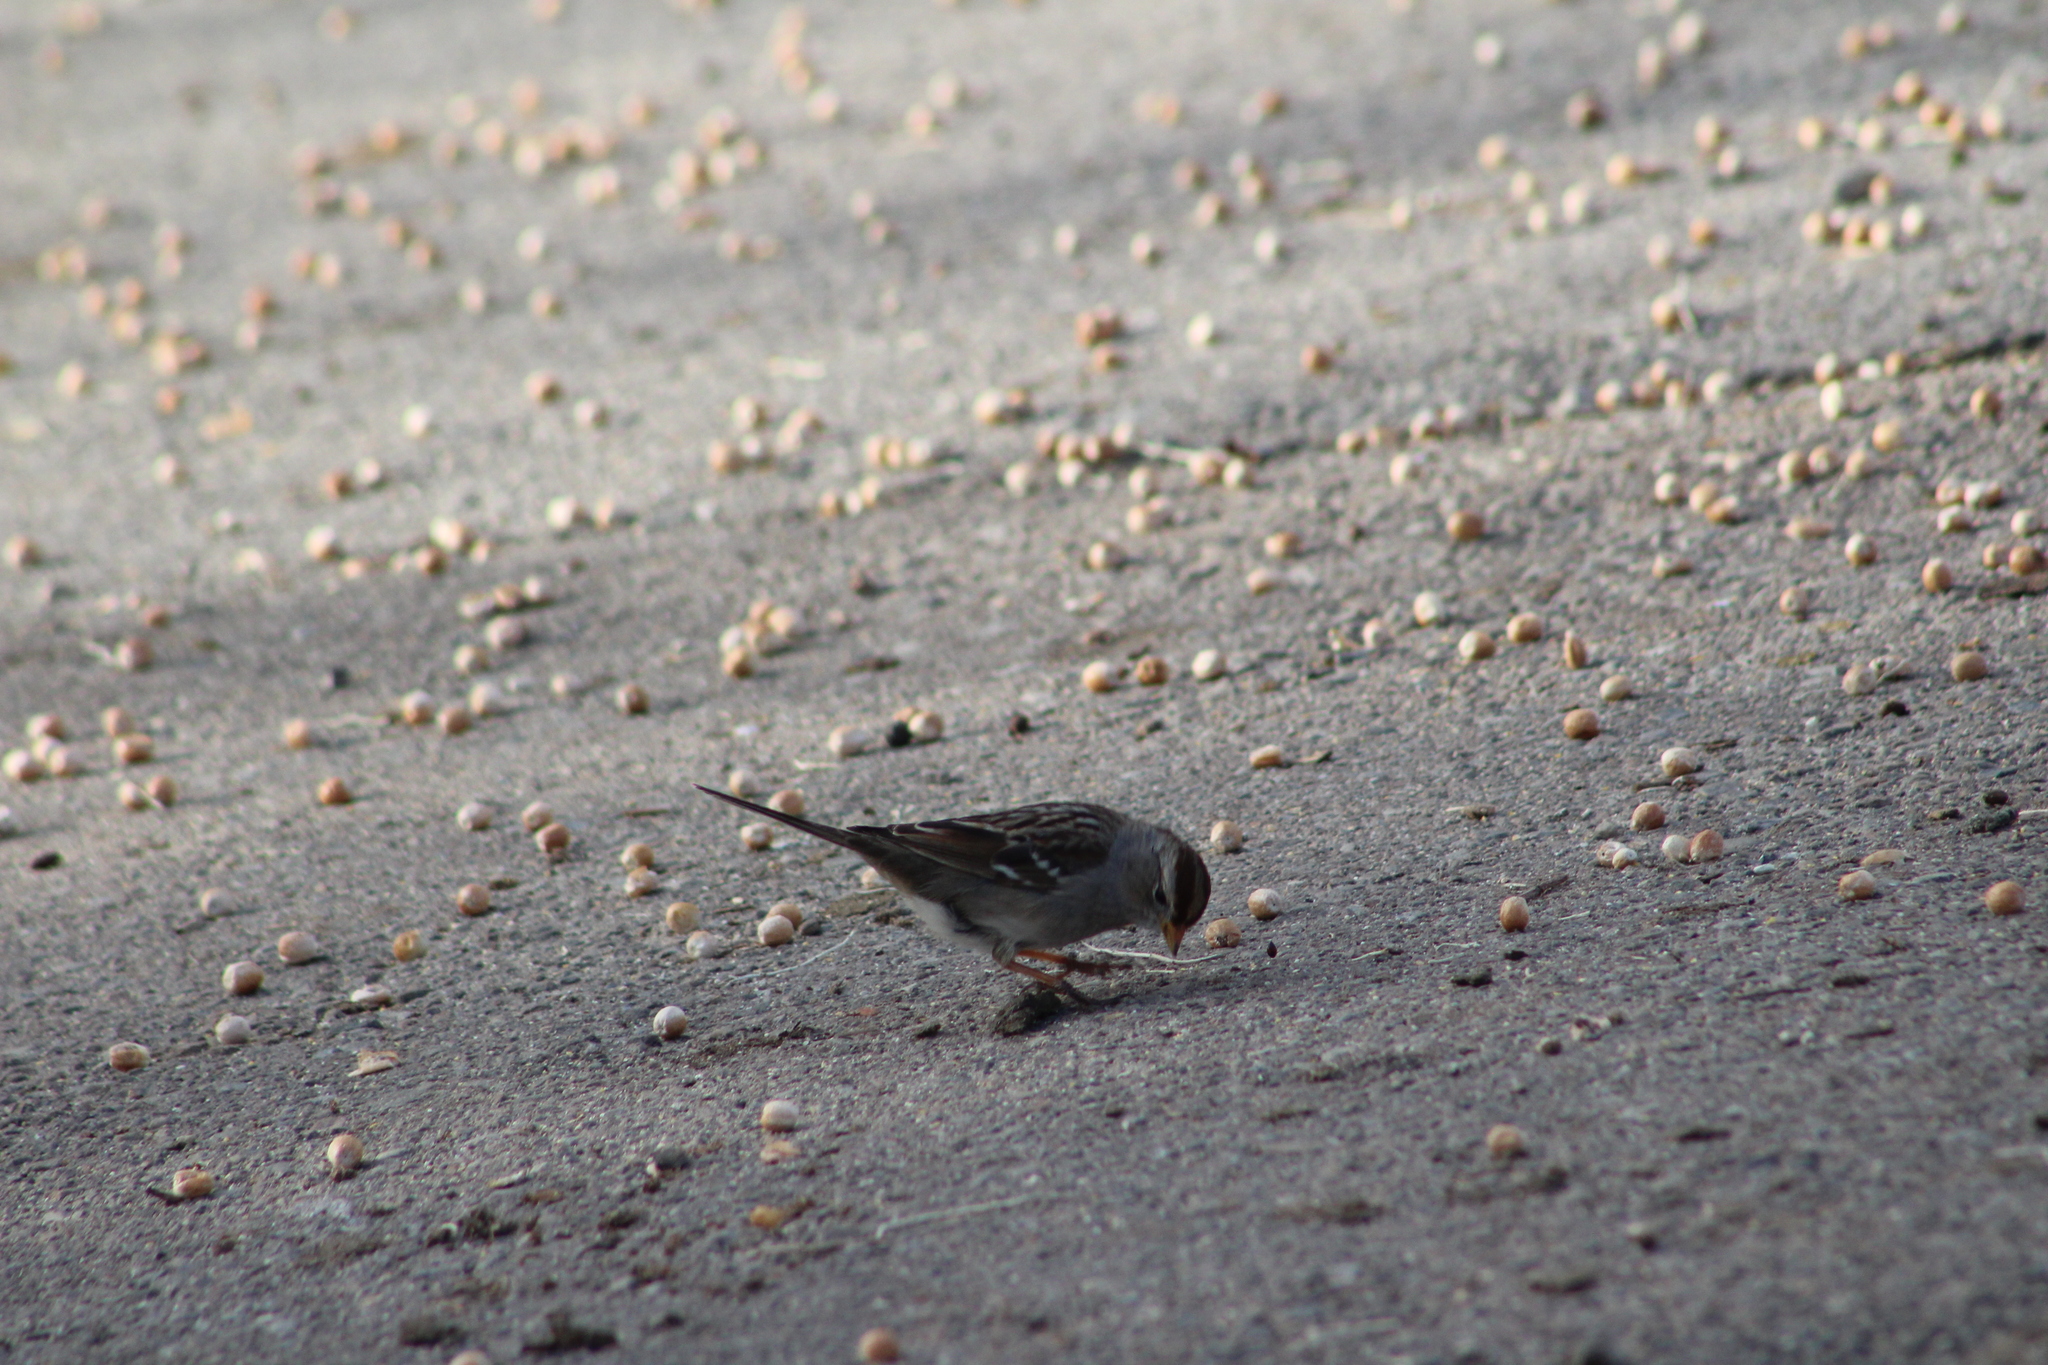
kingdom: Animalia
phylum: Chordata
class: Aves
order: Passeriformes
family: Passerellidae
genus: Zonotrichia
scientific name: Zonotrichia leucophrys
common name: White-crowned sparrow
